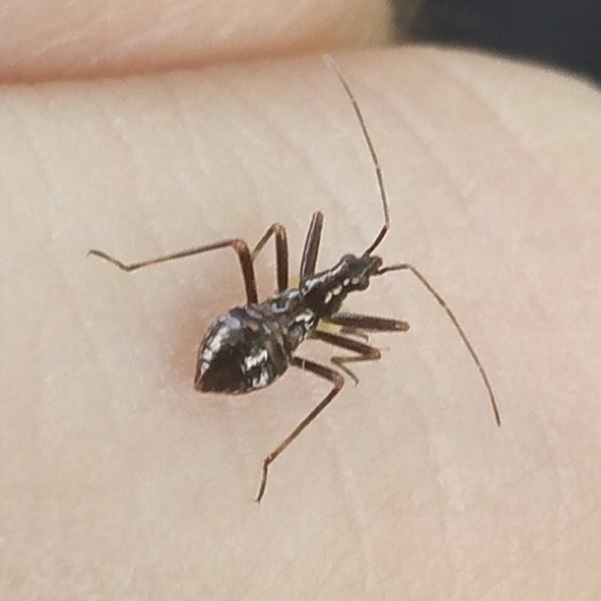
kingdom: Animalia
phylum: Arthropoda
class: Insecta
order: Hemiptera
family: Nabidae
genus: Himacerus
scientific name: Himacerus apterus
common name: Tree damsel bug
